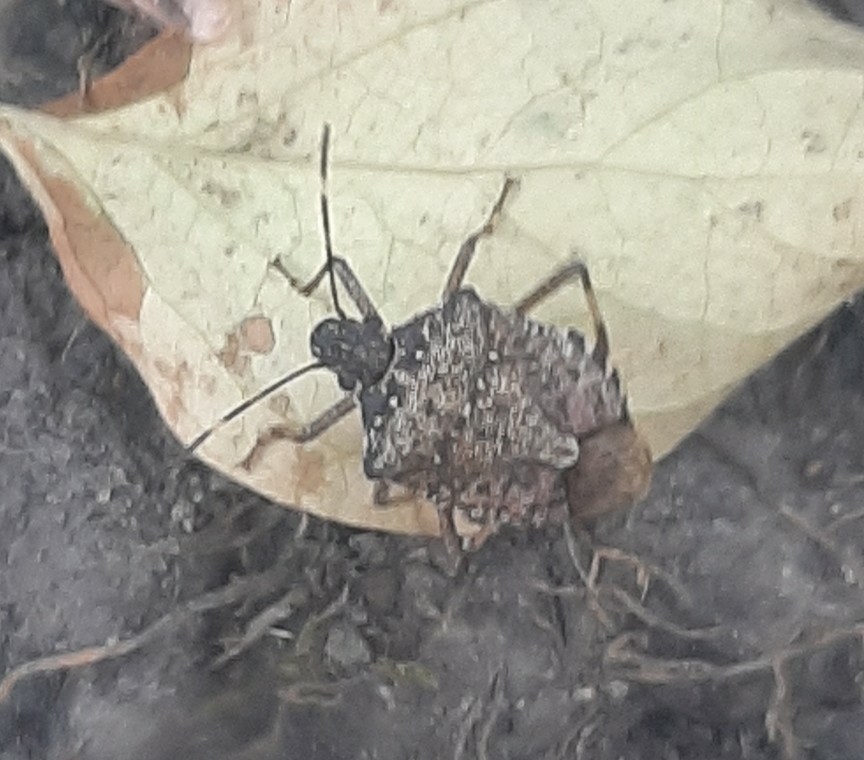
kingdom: Animalia
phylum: Arthropoda
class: Insecta
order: Hemiptera
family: Pentatomidae
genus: Halyomorpha
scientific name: Halyomorpha halys
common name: Brown marmorated stink bug
